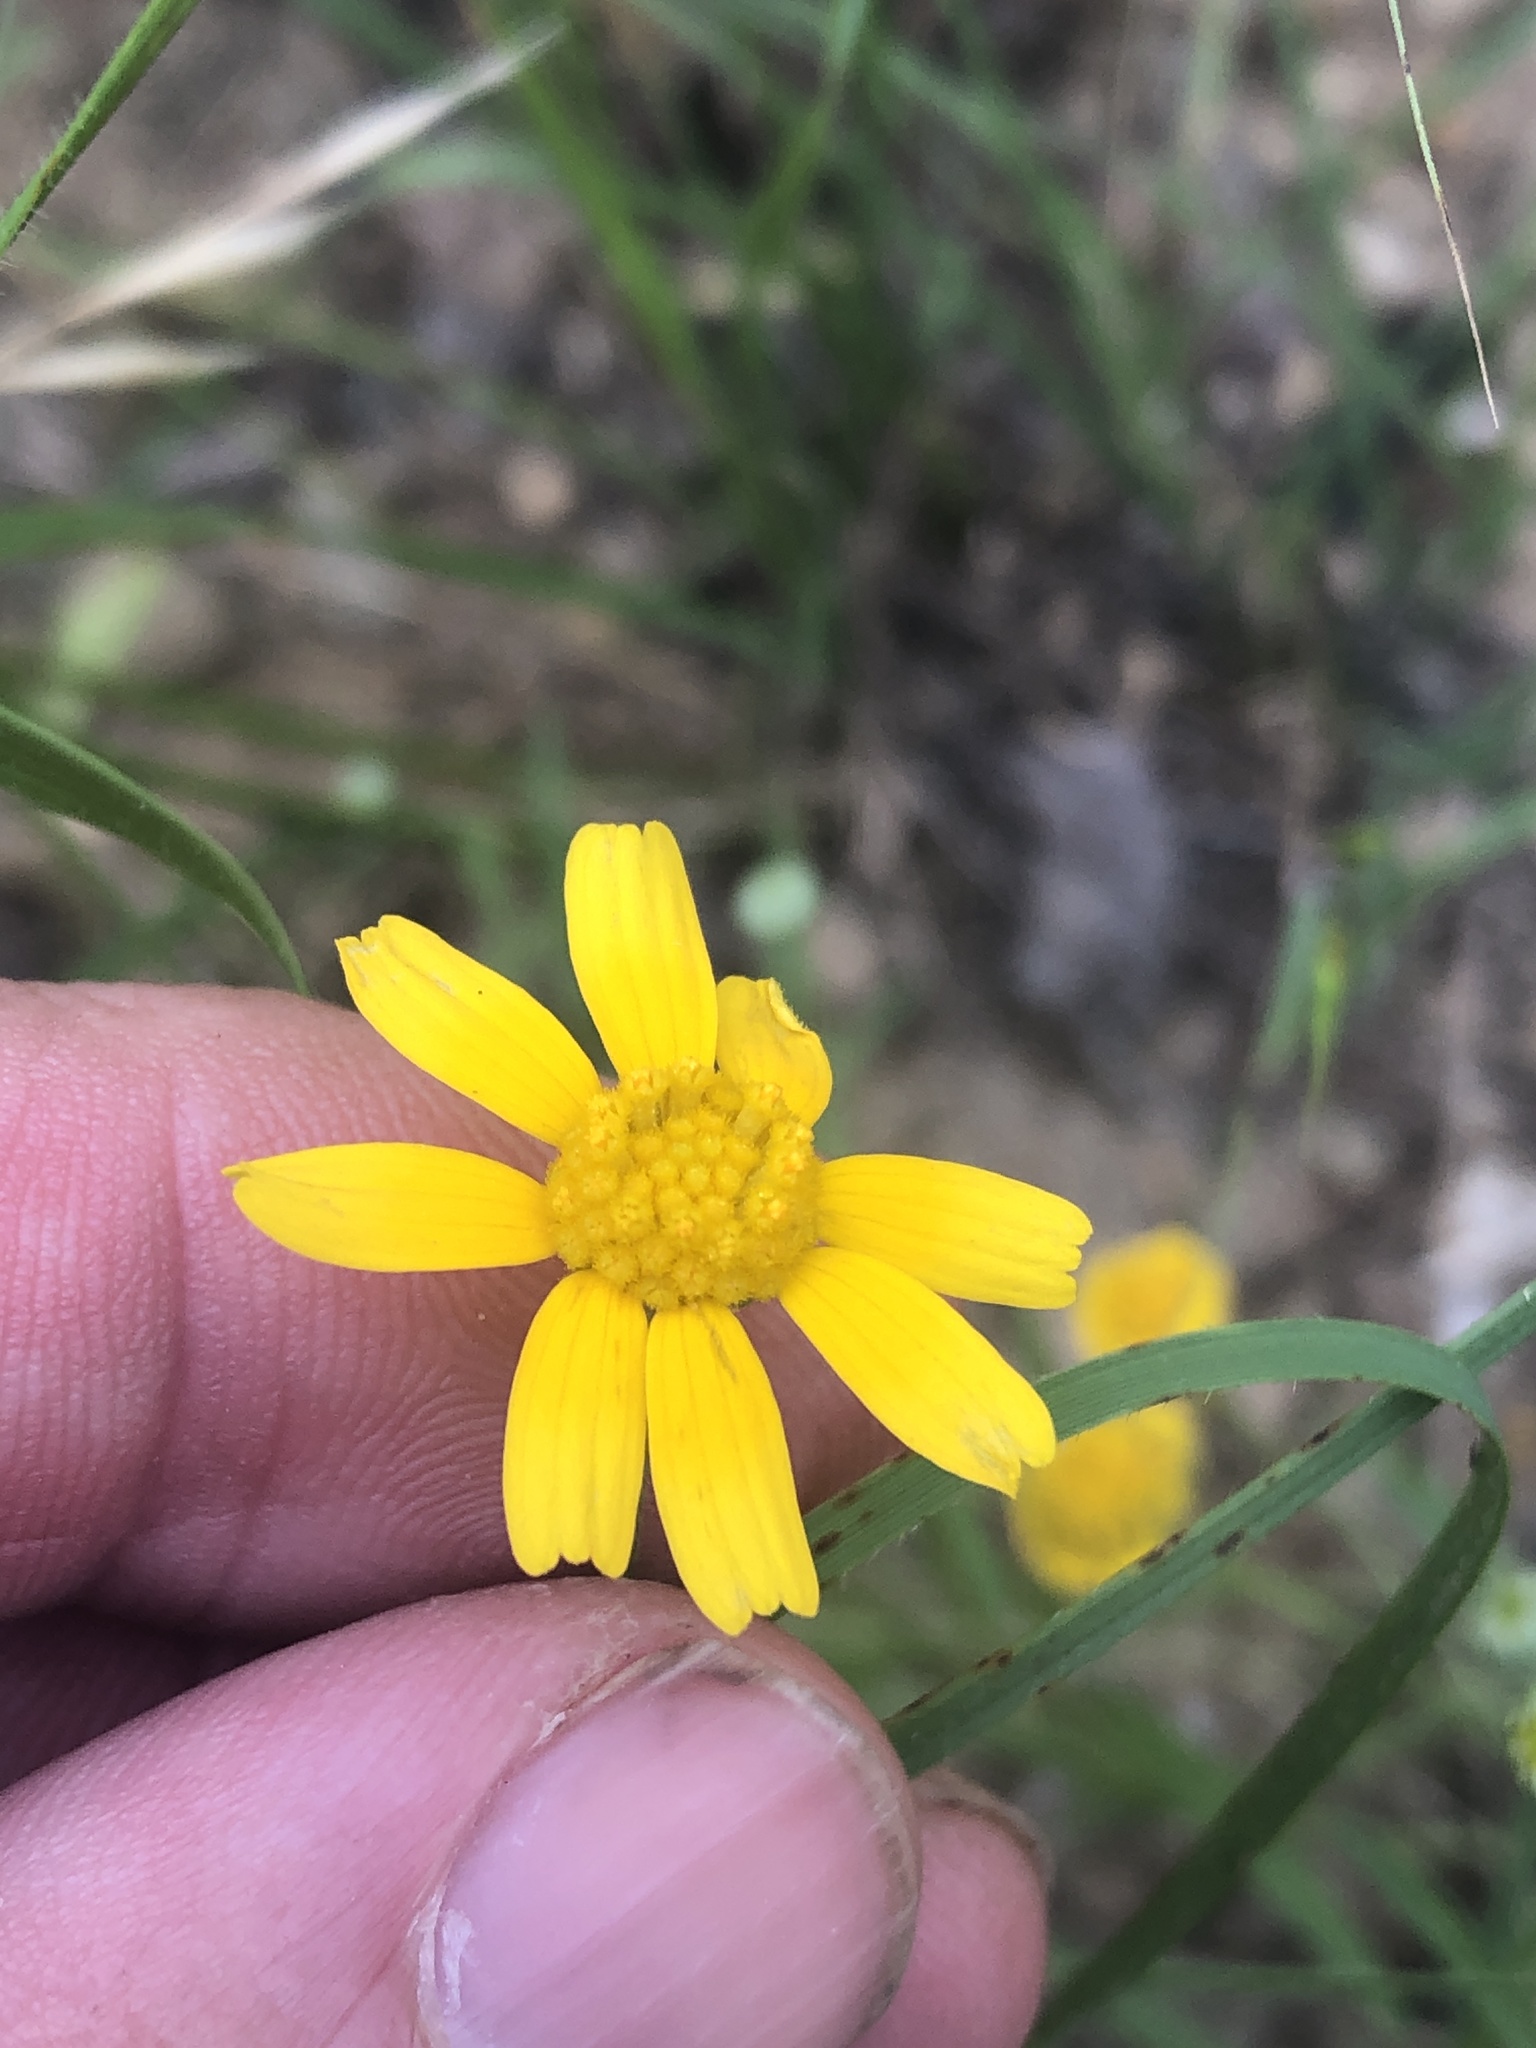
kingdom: Plantae
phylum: Tracheophyta
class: Magnoliopsida
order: Asterales
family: Asteraceae
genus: Tetraneuris
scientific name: Tetraneuris linearifolia
